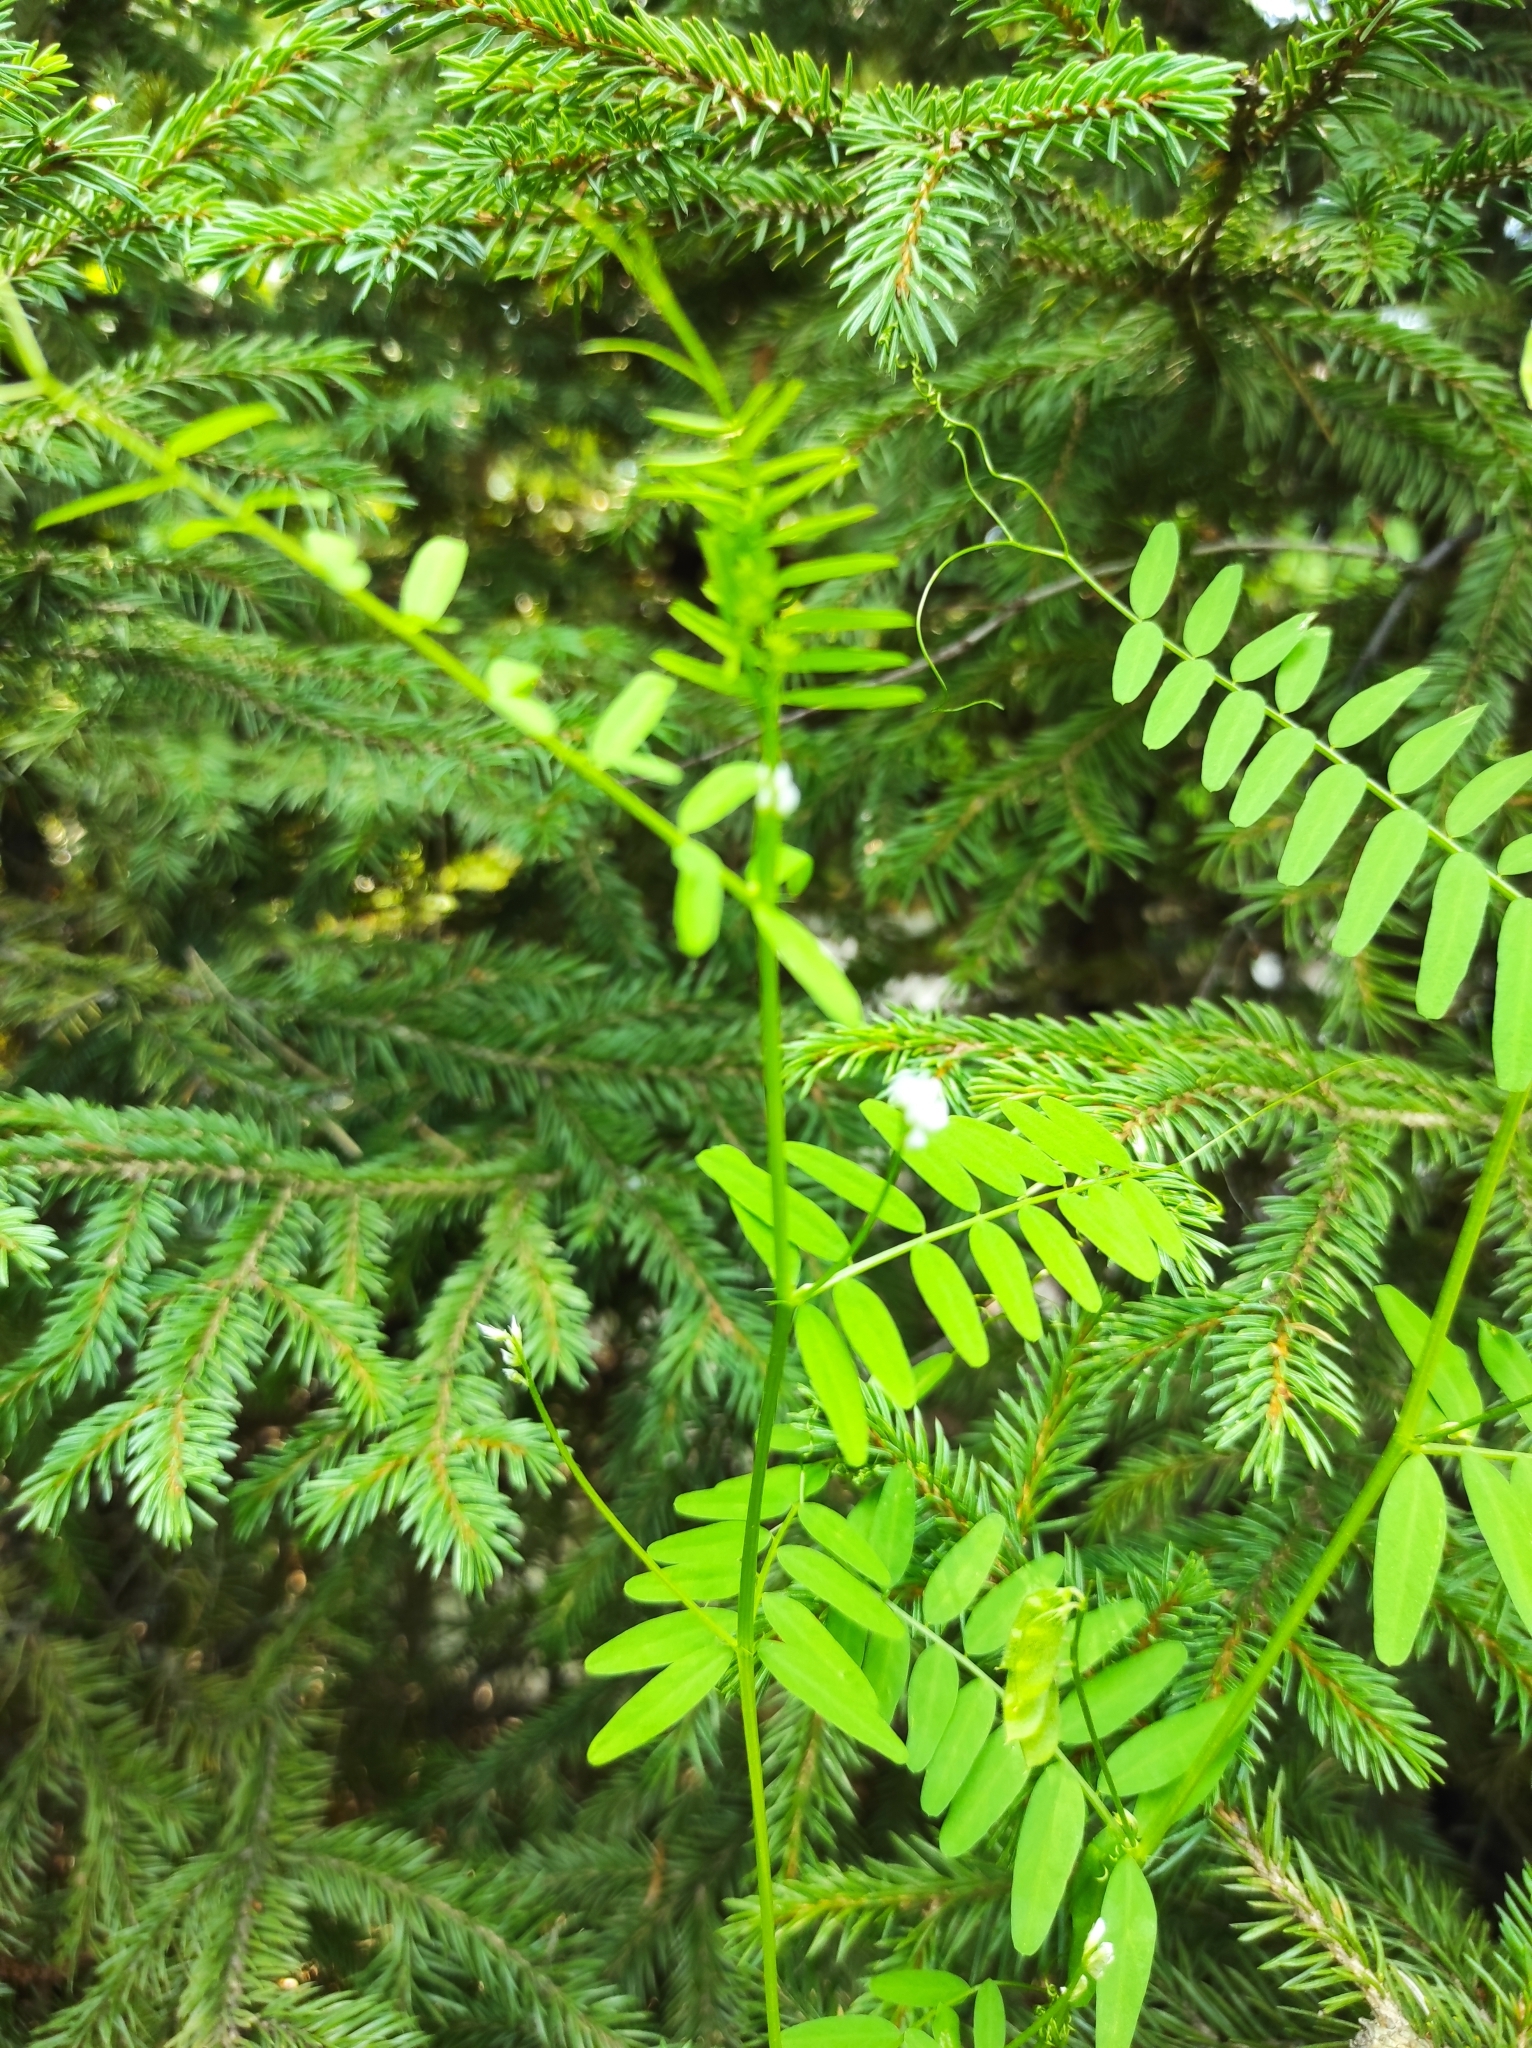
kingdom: Plantae
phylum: Tracheophyta
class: Magnoliopsida
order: Fabales
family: Fabaceae
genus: Vicia
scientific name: Vicia hirsuta
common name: Tiny vetch
